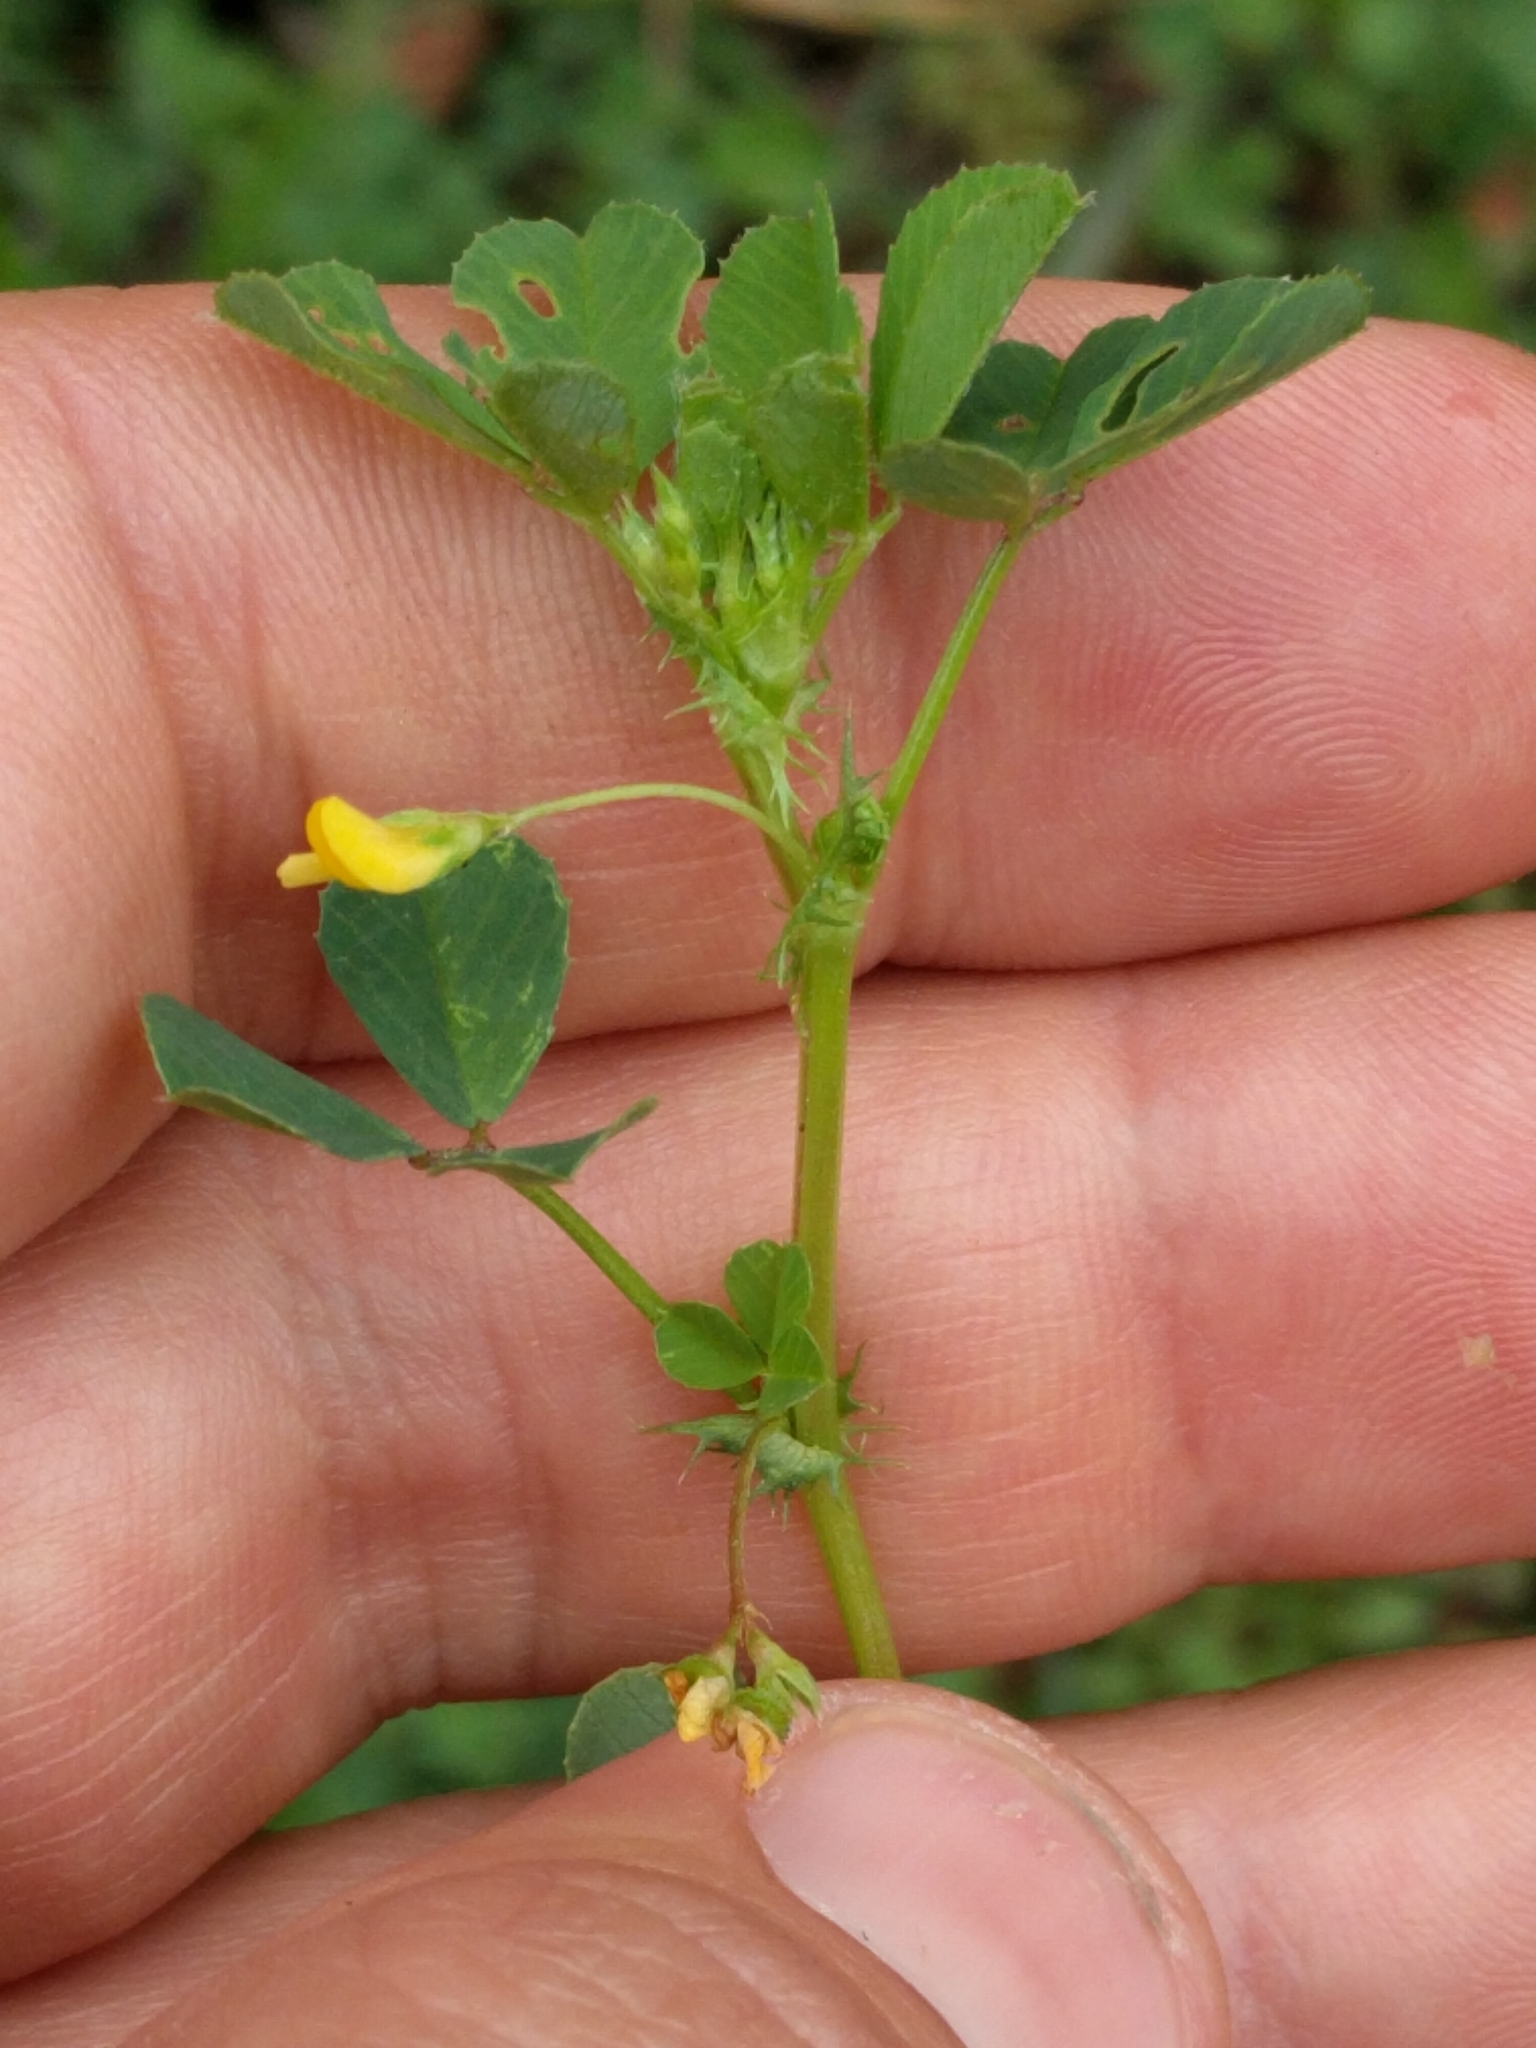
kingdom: Plantae
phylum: Tracheophyta
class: Magnoliopsida
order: Fabales
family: Fabaceae
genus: Medicago
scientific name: Medicago polymorpha
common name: Burclover
